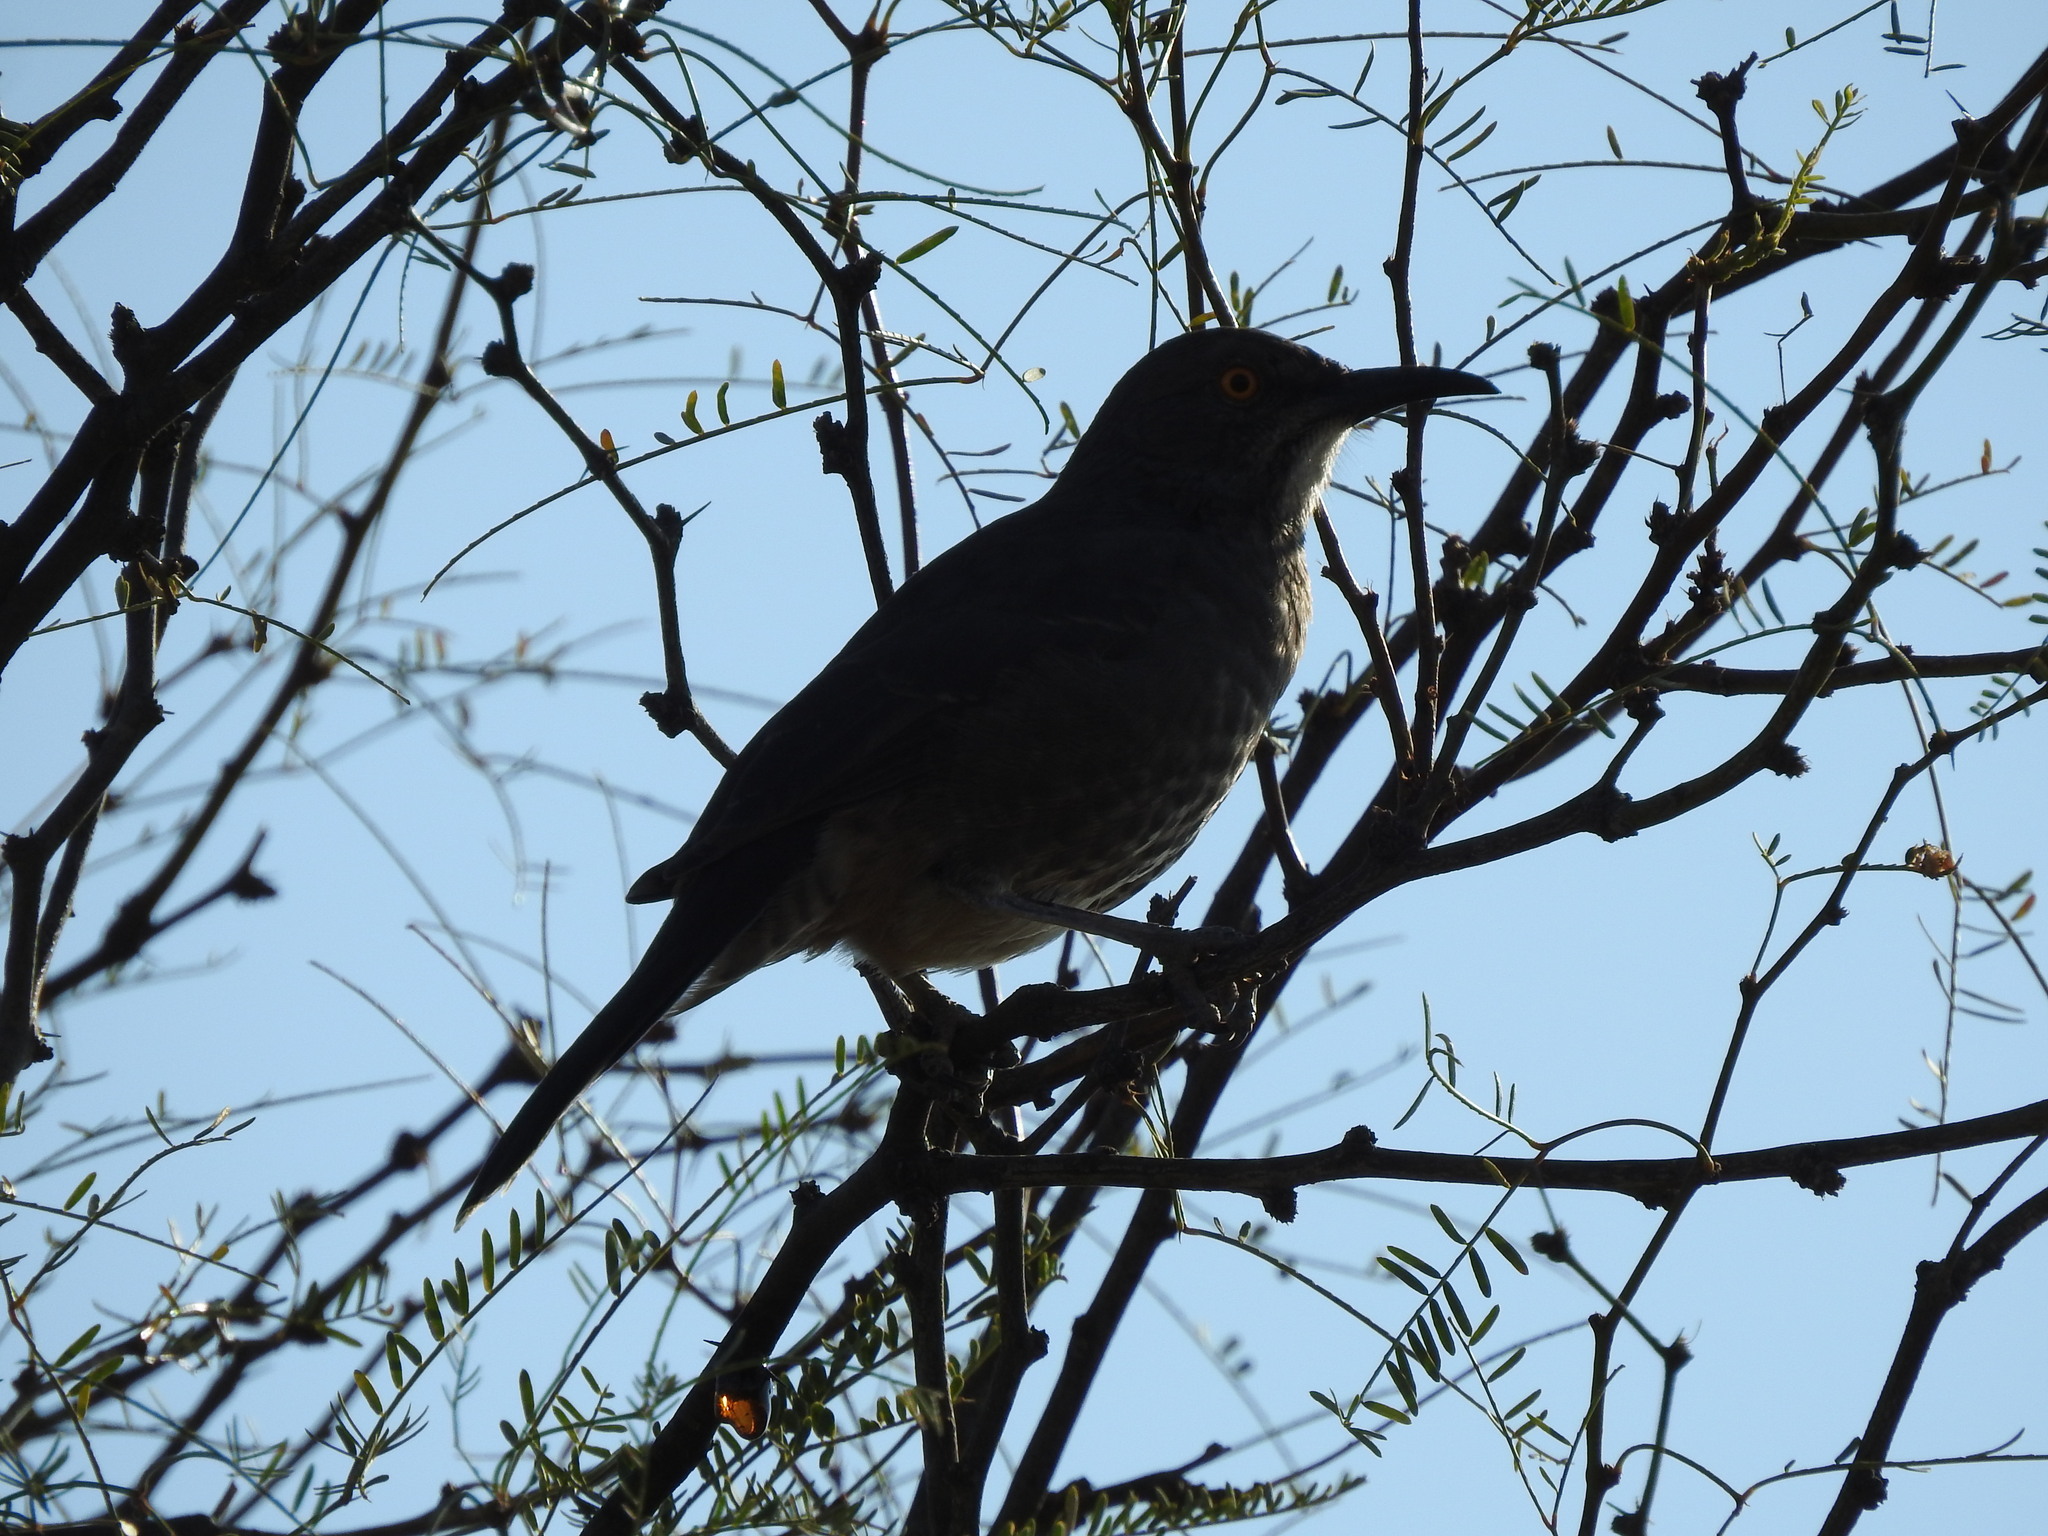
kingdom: Animalia
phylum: Chordata
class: Aves
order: Passeriformes
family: Mimidae
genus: Toxostoma
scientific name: Toxostoma curvirostre
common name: Curve-billed thrasher
